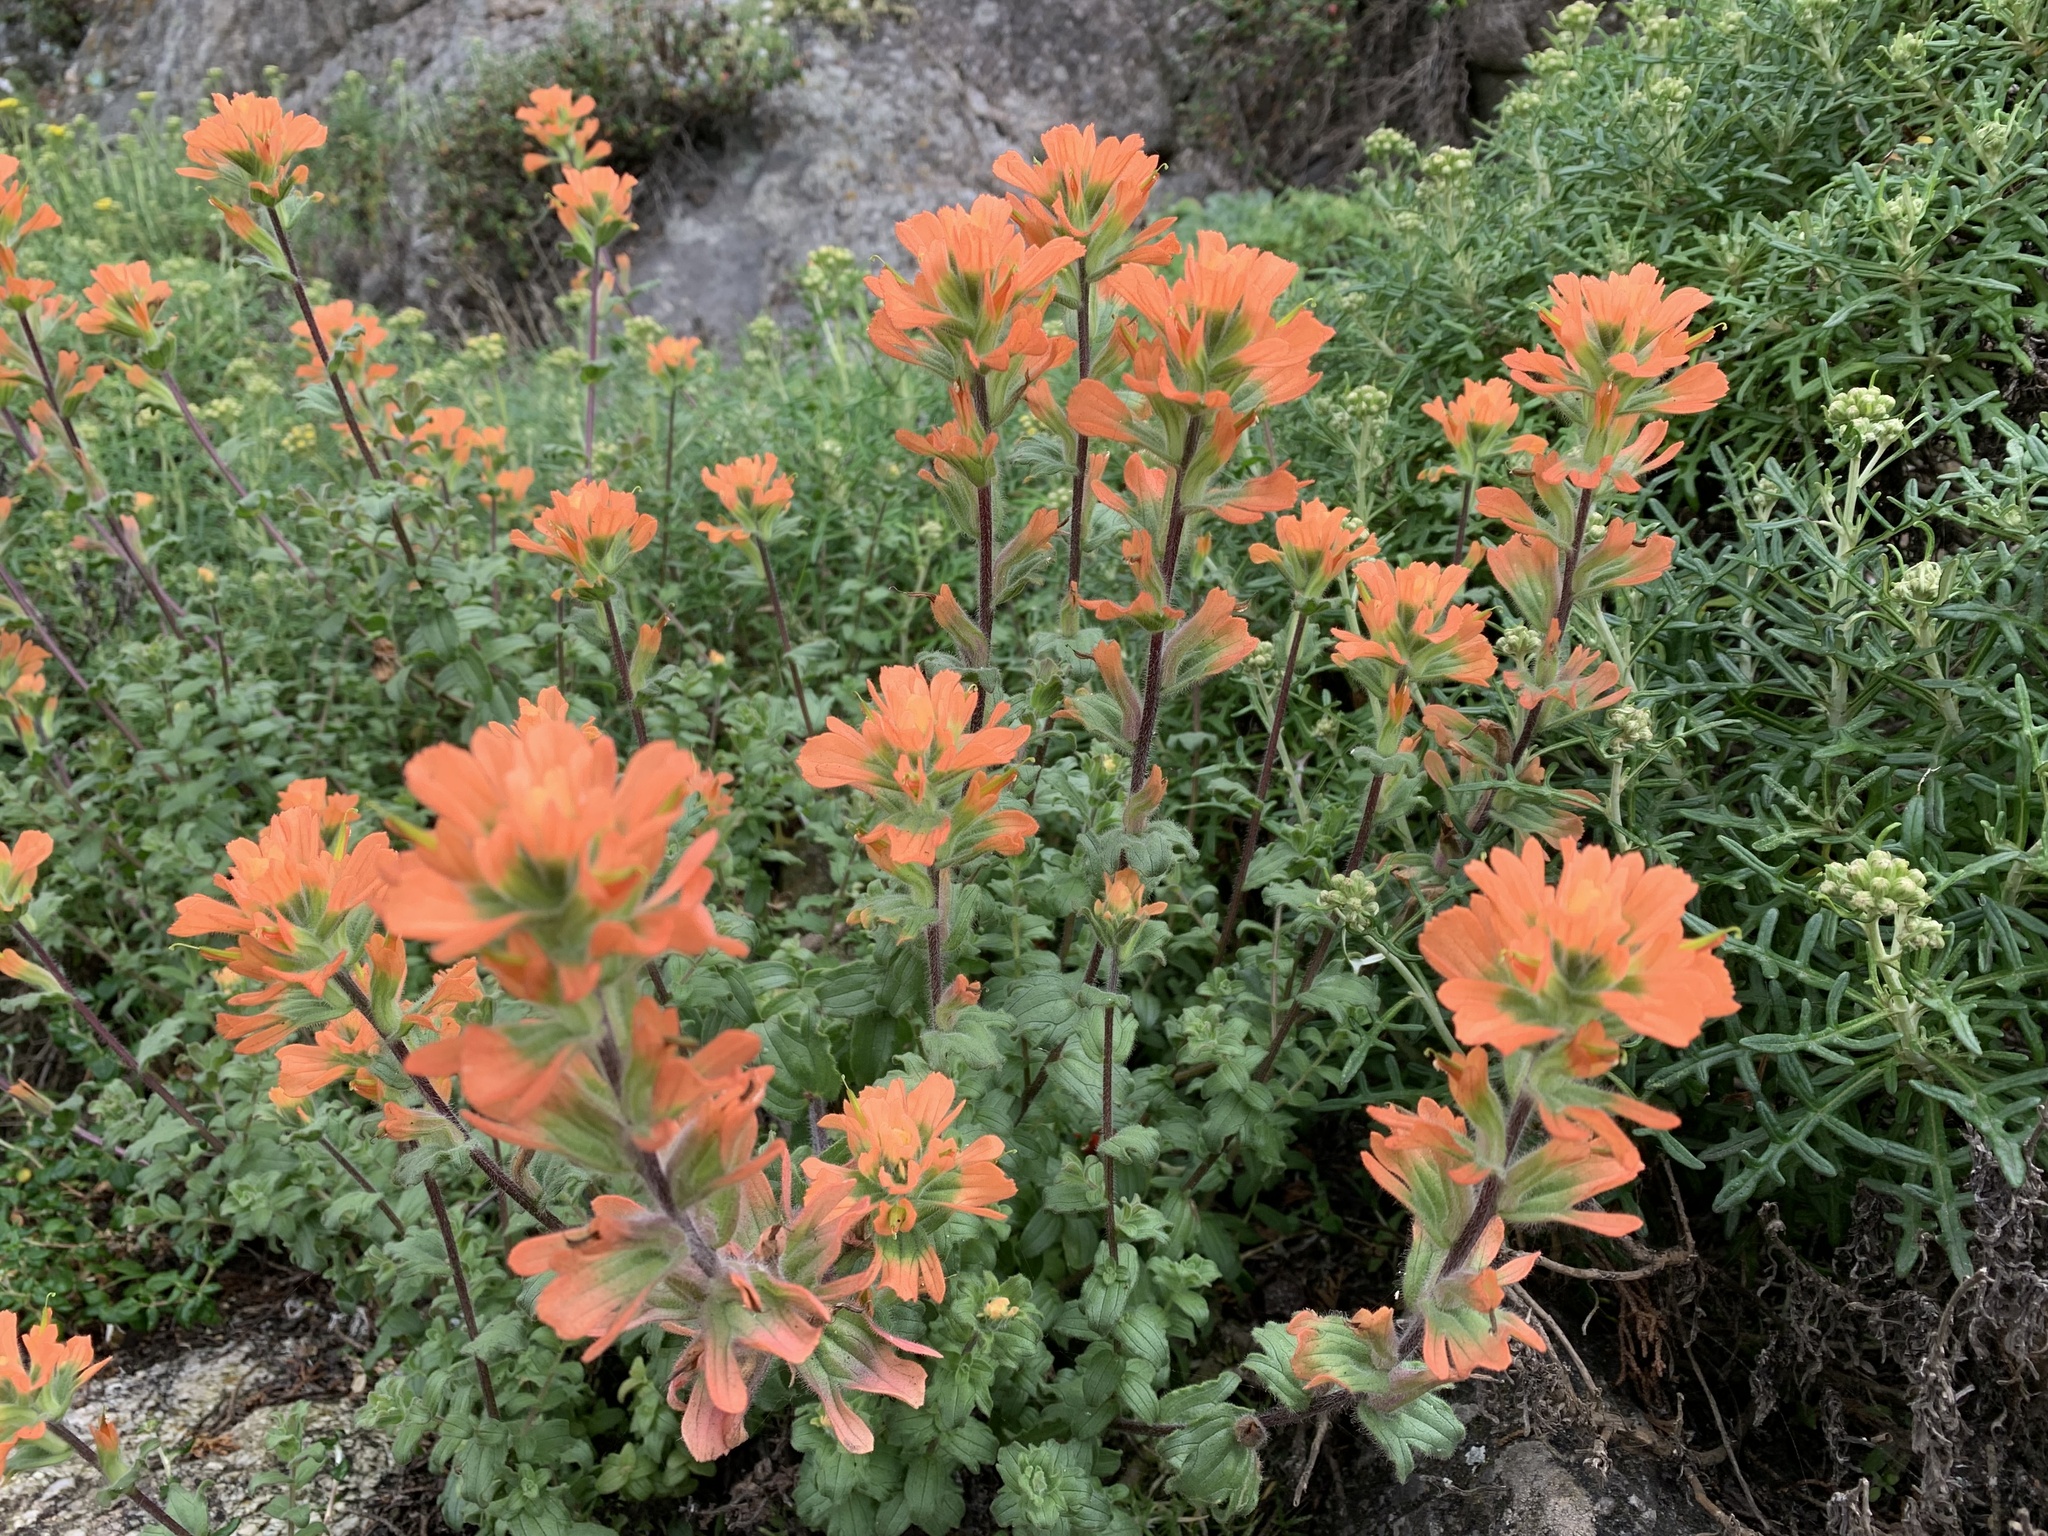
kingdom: Plantae
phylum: Tracheophyta
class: Magnoliopsida
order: Lamiales
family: Orobanchaceae
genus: Castilleja
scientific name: Castilleja latifolia
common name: Monterey indian paintbrush
